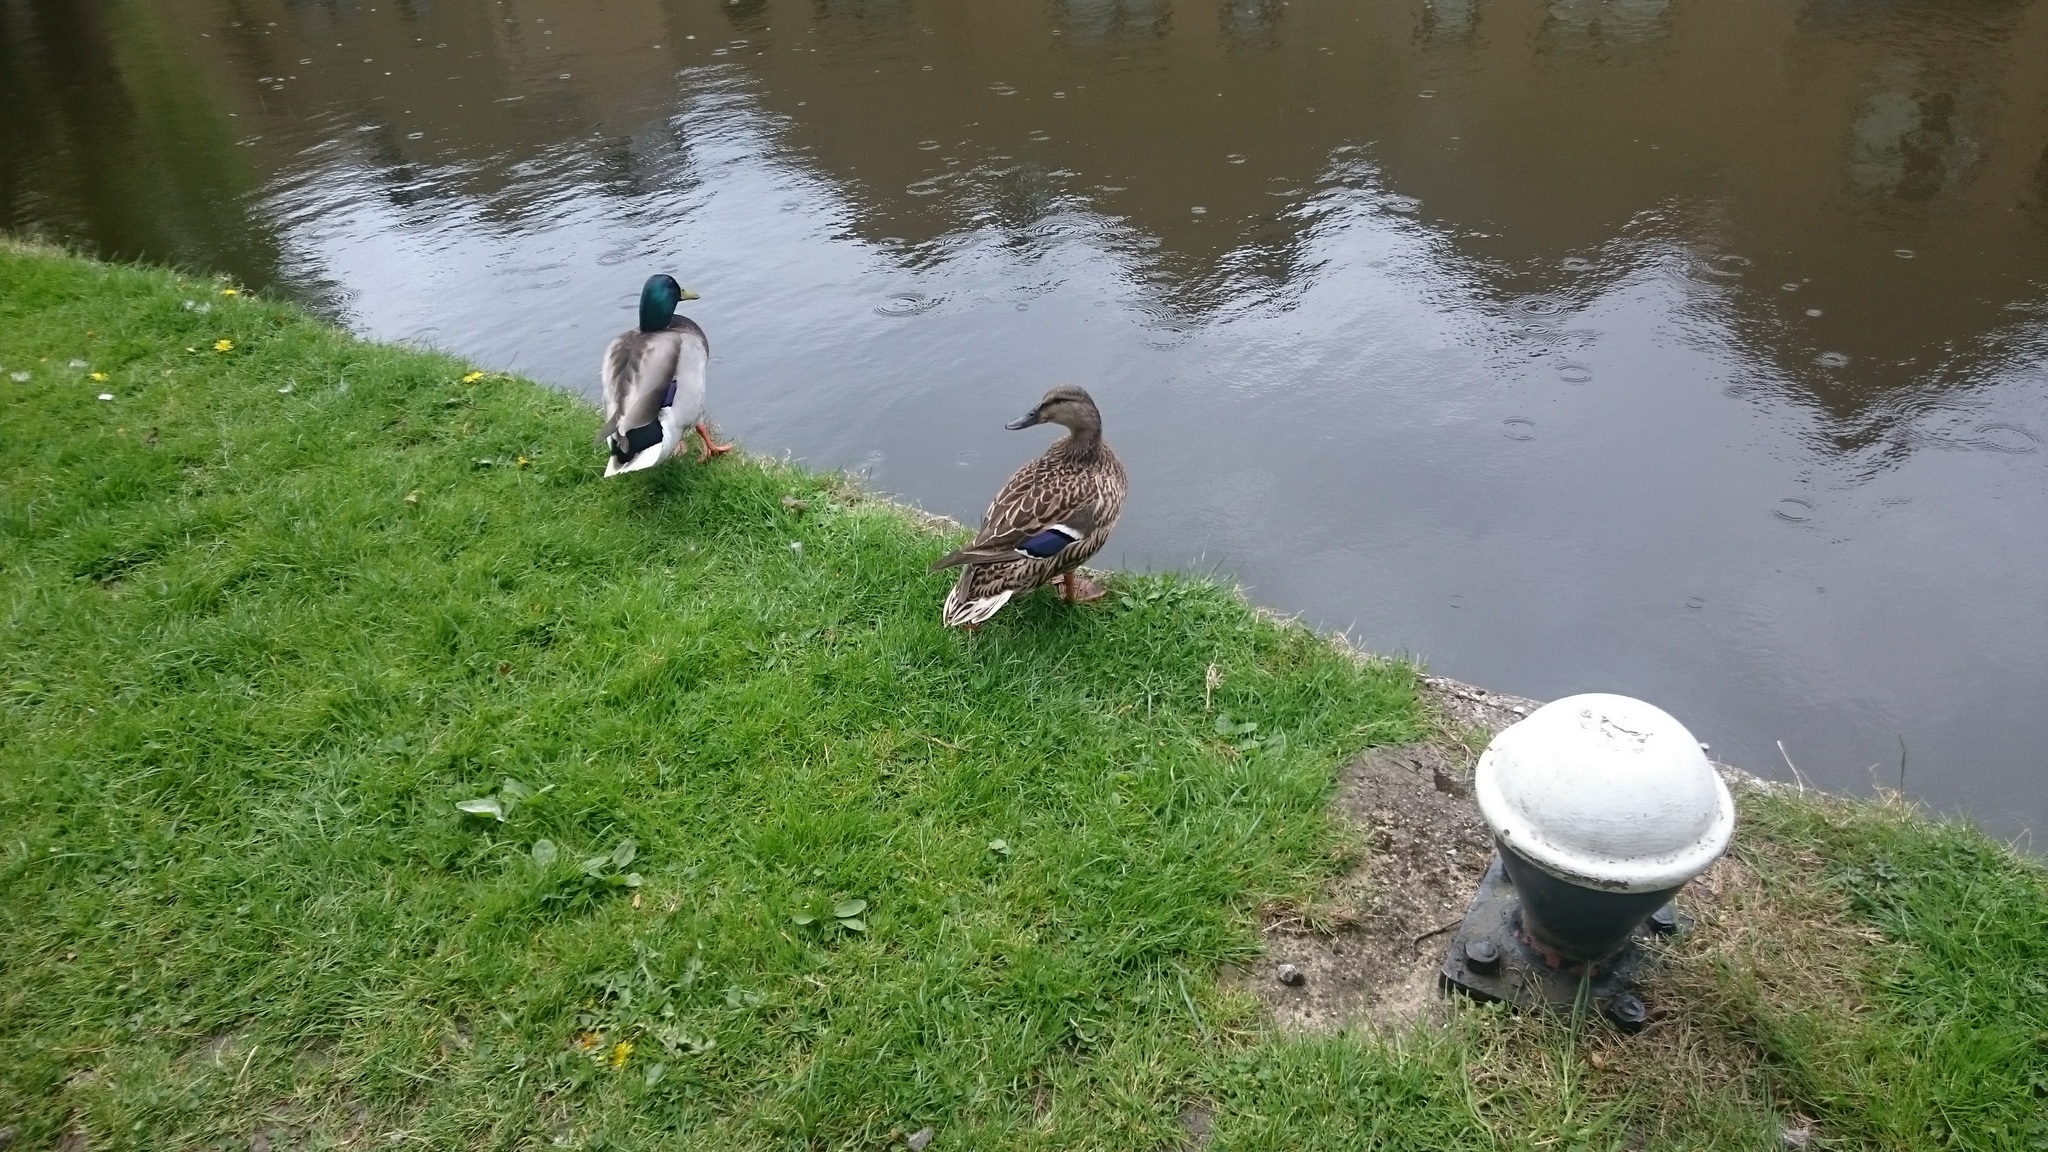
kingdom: Animalia
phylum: Chordata
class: Aves
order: Anseriformes
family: Anatidae
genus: Anas
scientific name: Anas platyrhynchos
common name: Mallard
